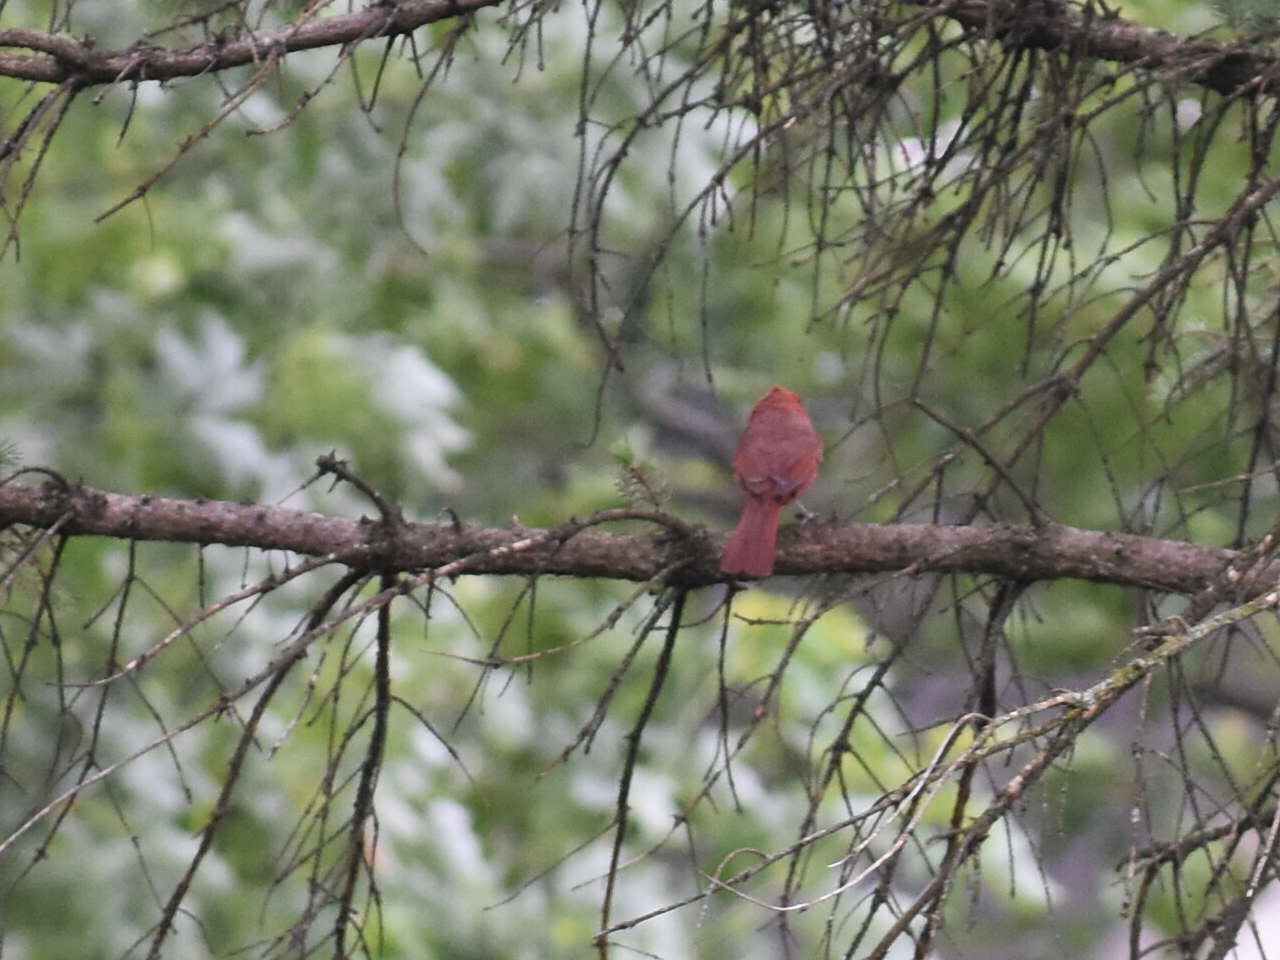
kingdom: Animalia
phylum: Chordata
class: Aves
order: Passeriformes
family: Cardinalidae
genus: Cardinalis
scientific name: Cardinalis cardinalis
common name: Northern cardinal
